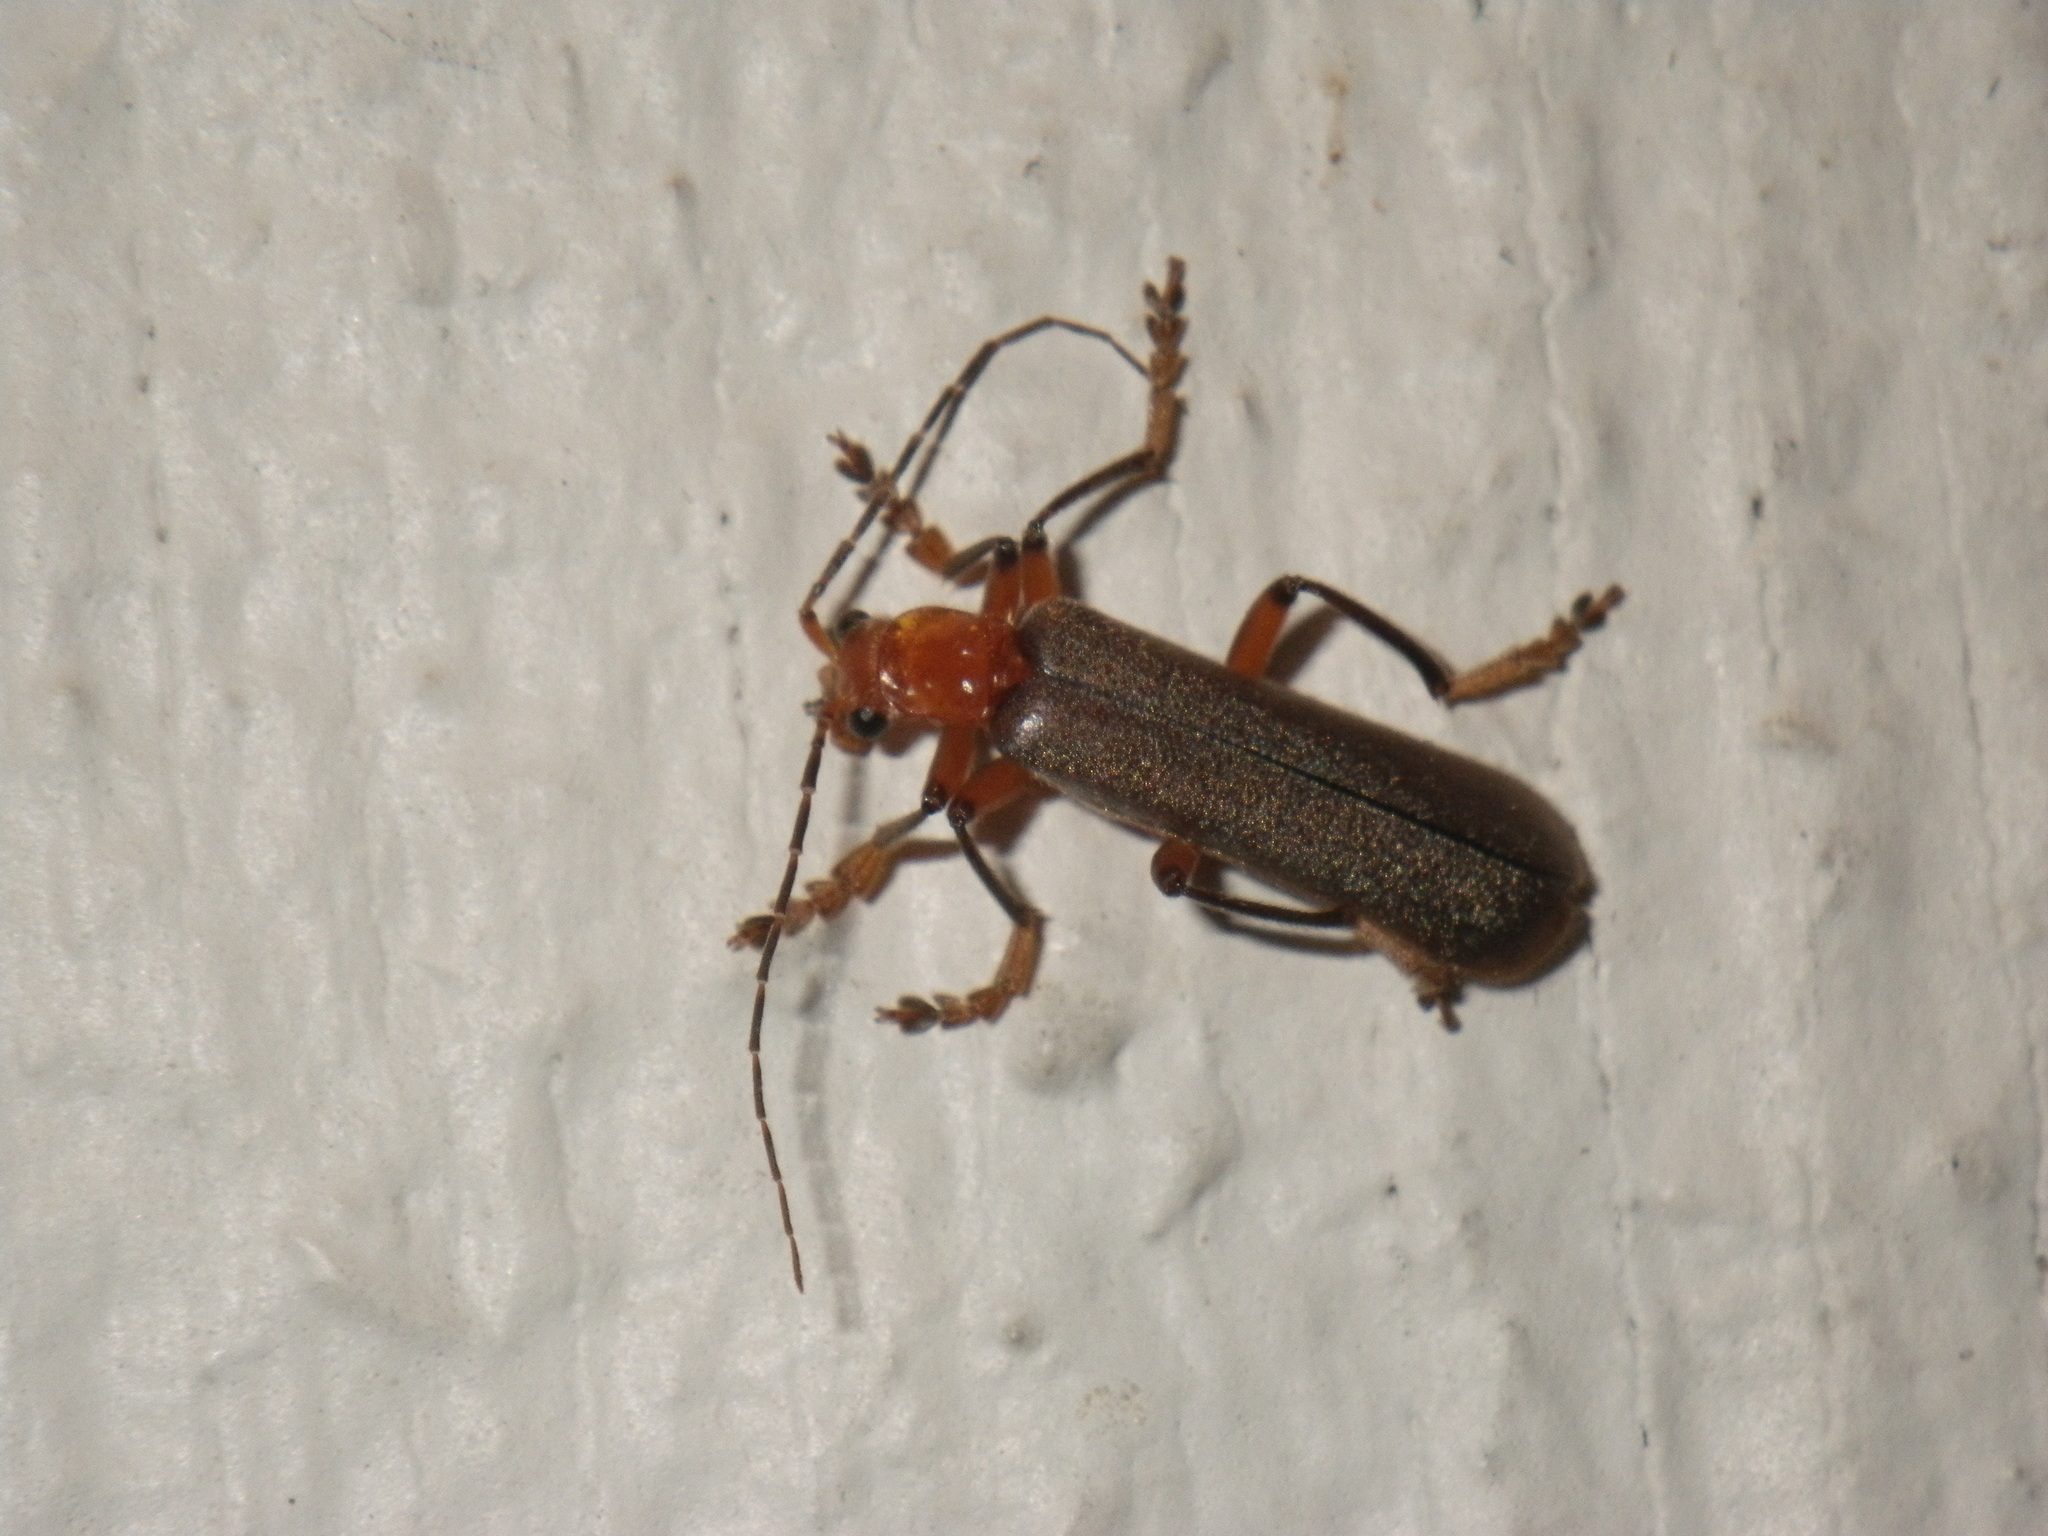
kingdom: Animalia
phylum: Arthropoda
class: Insecta
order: Coleoptera
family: Cantharidae
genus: Pacificanthia
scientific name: Pacificanthia consors
